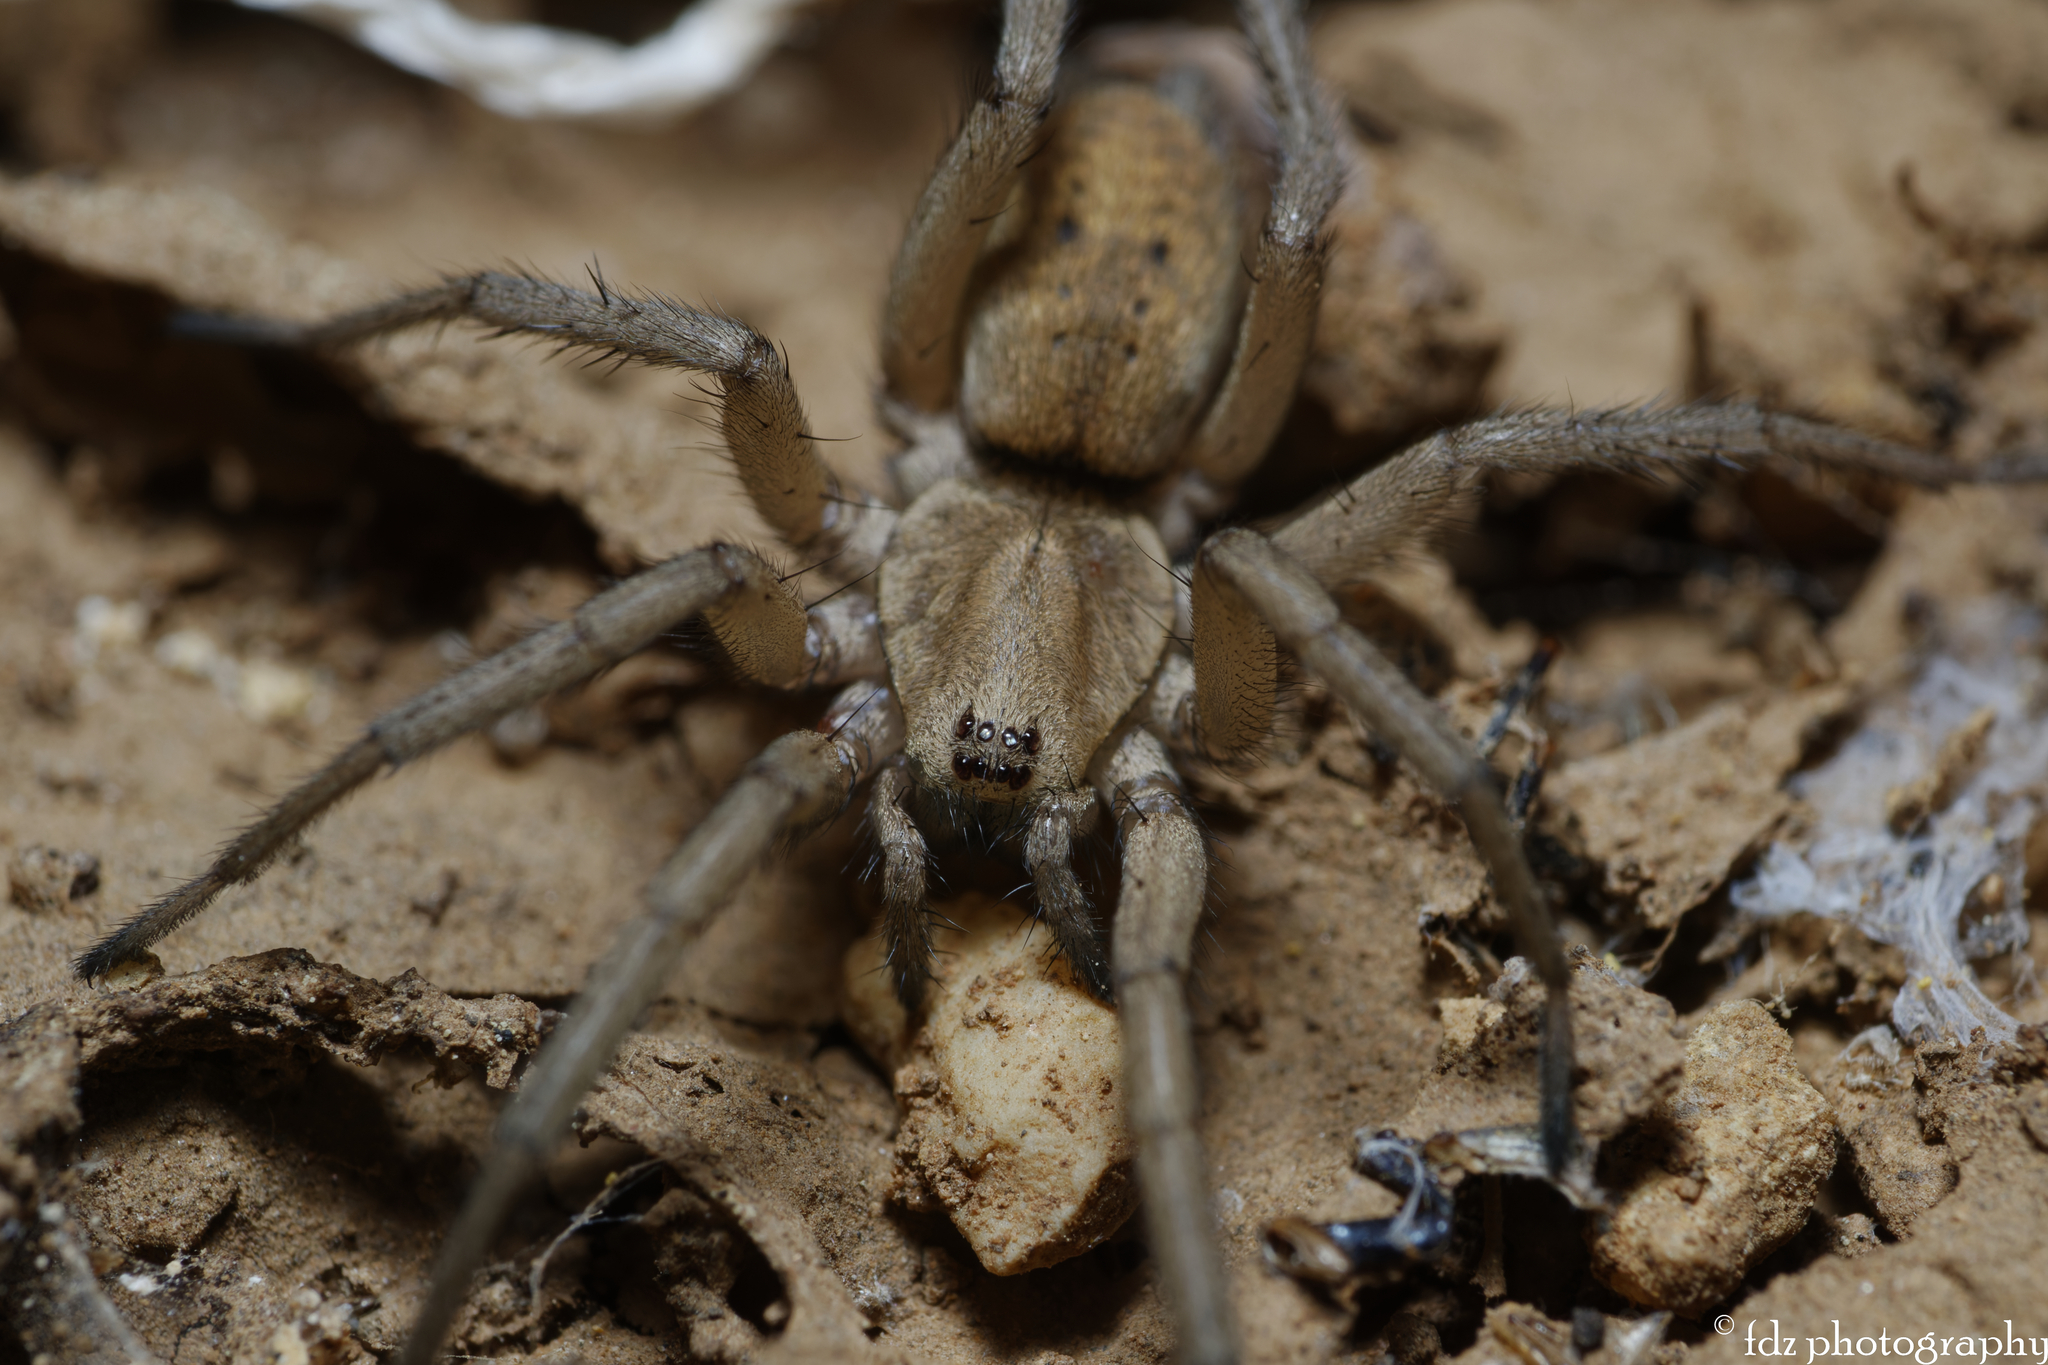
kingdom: Animalia
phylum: Arthropoda
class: Arachnida
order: Araneae
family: Gnaphosidae
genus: Nomisia
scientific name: Nomisia aussereri
